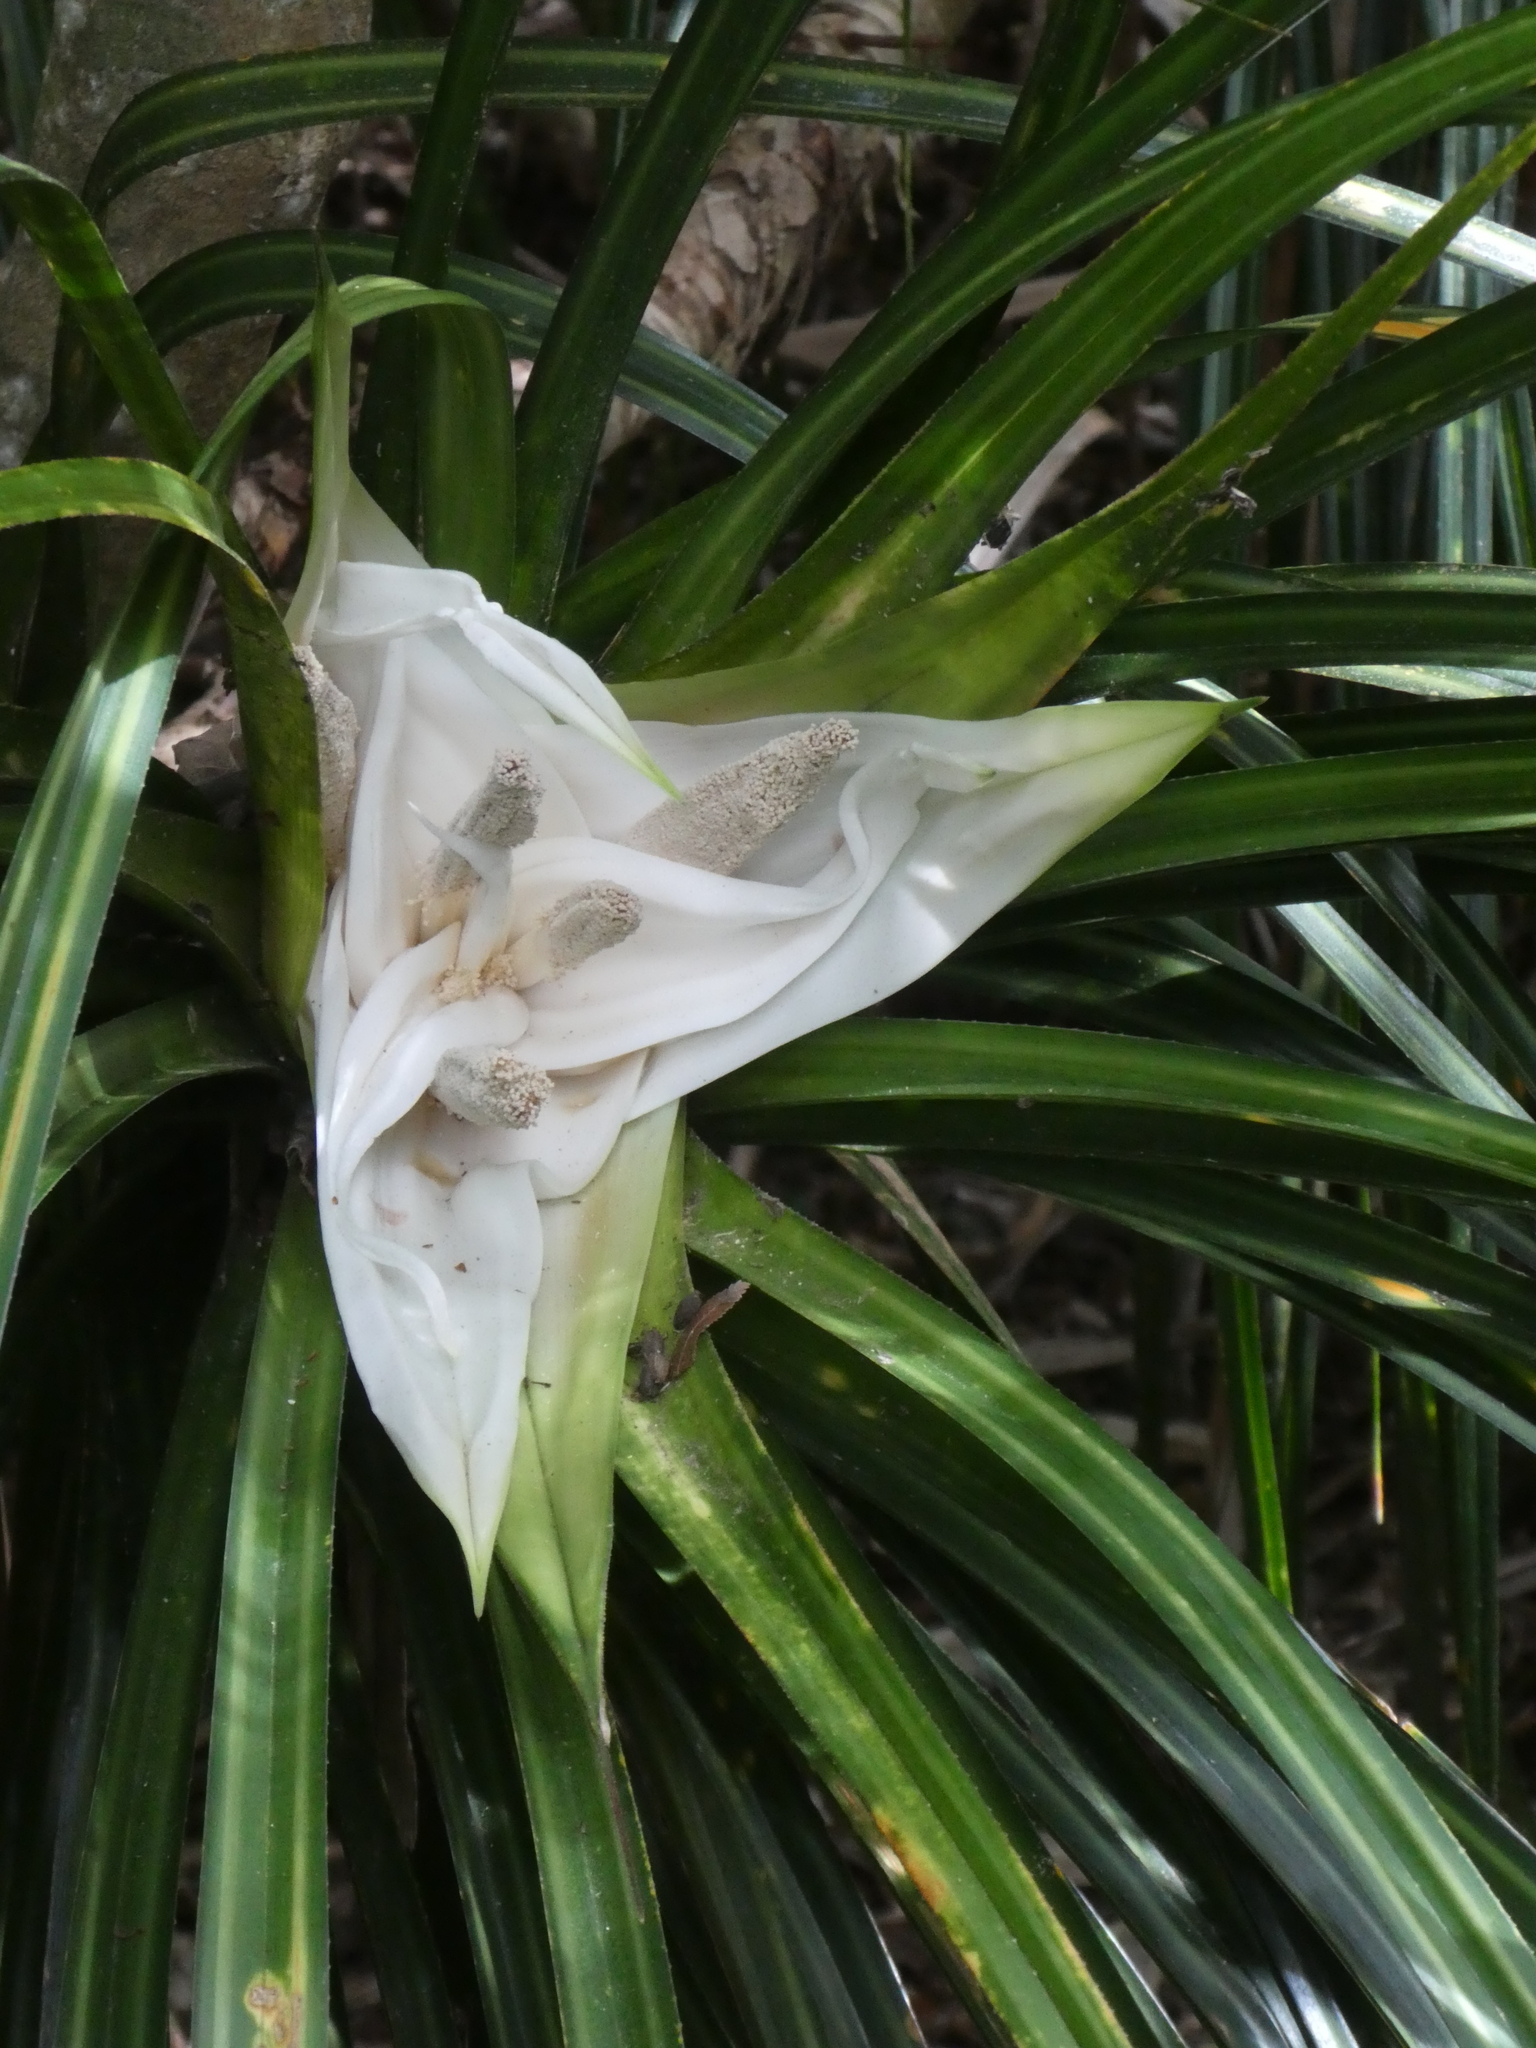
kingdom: Plantae
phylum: Tracheophyta
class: Liliopsida
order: Pandanales
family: Pandanaceae
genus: Freycinetia
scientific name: Freycinetia banksii
